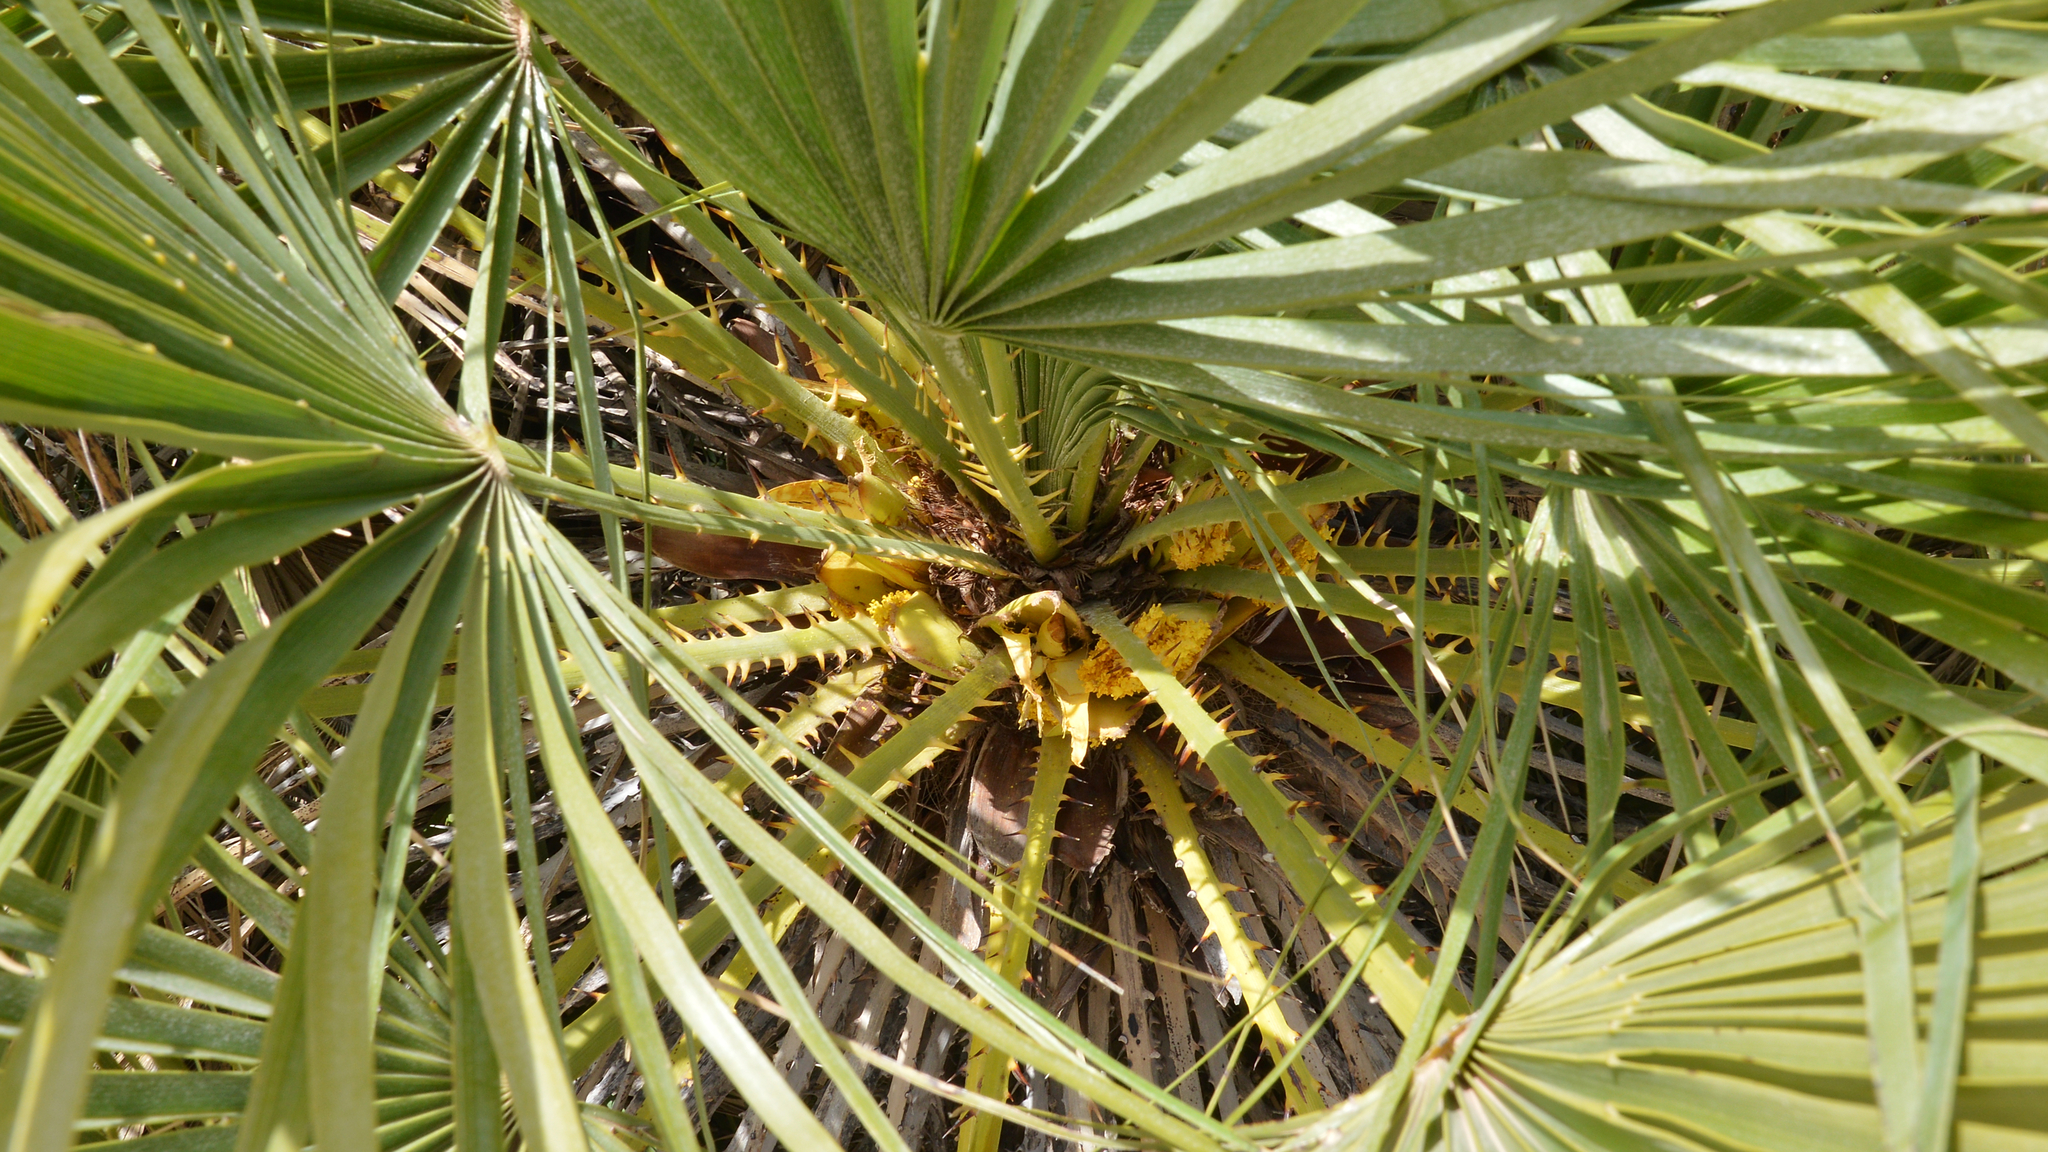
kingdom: Plantae
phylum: Tracheophyta
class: Liliopsida
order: Arecales
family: Arecaceae
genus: Chamaerops
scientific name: Chamaerops humilis
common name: Dwarf fan palm
